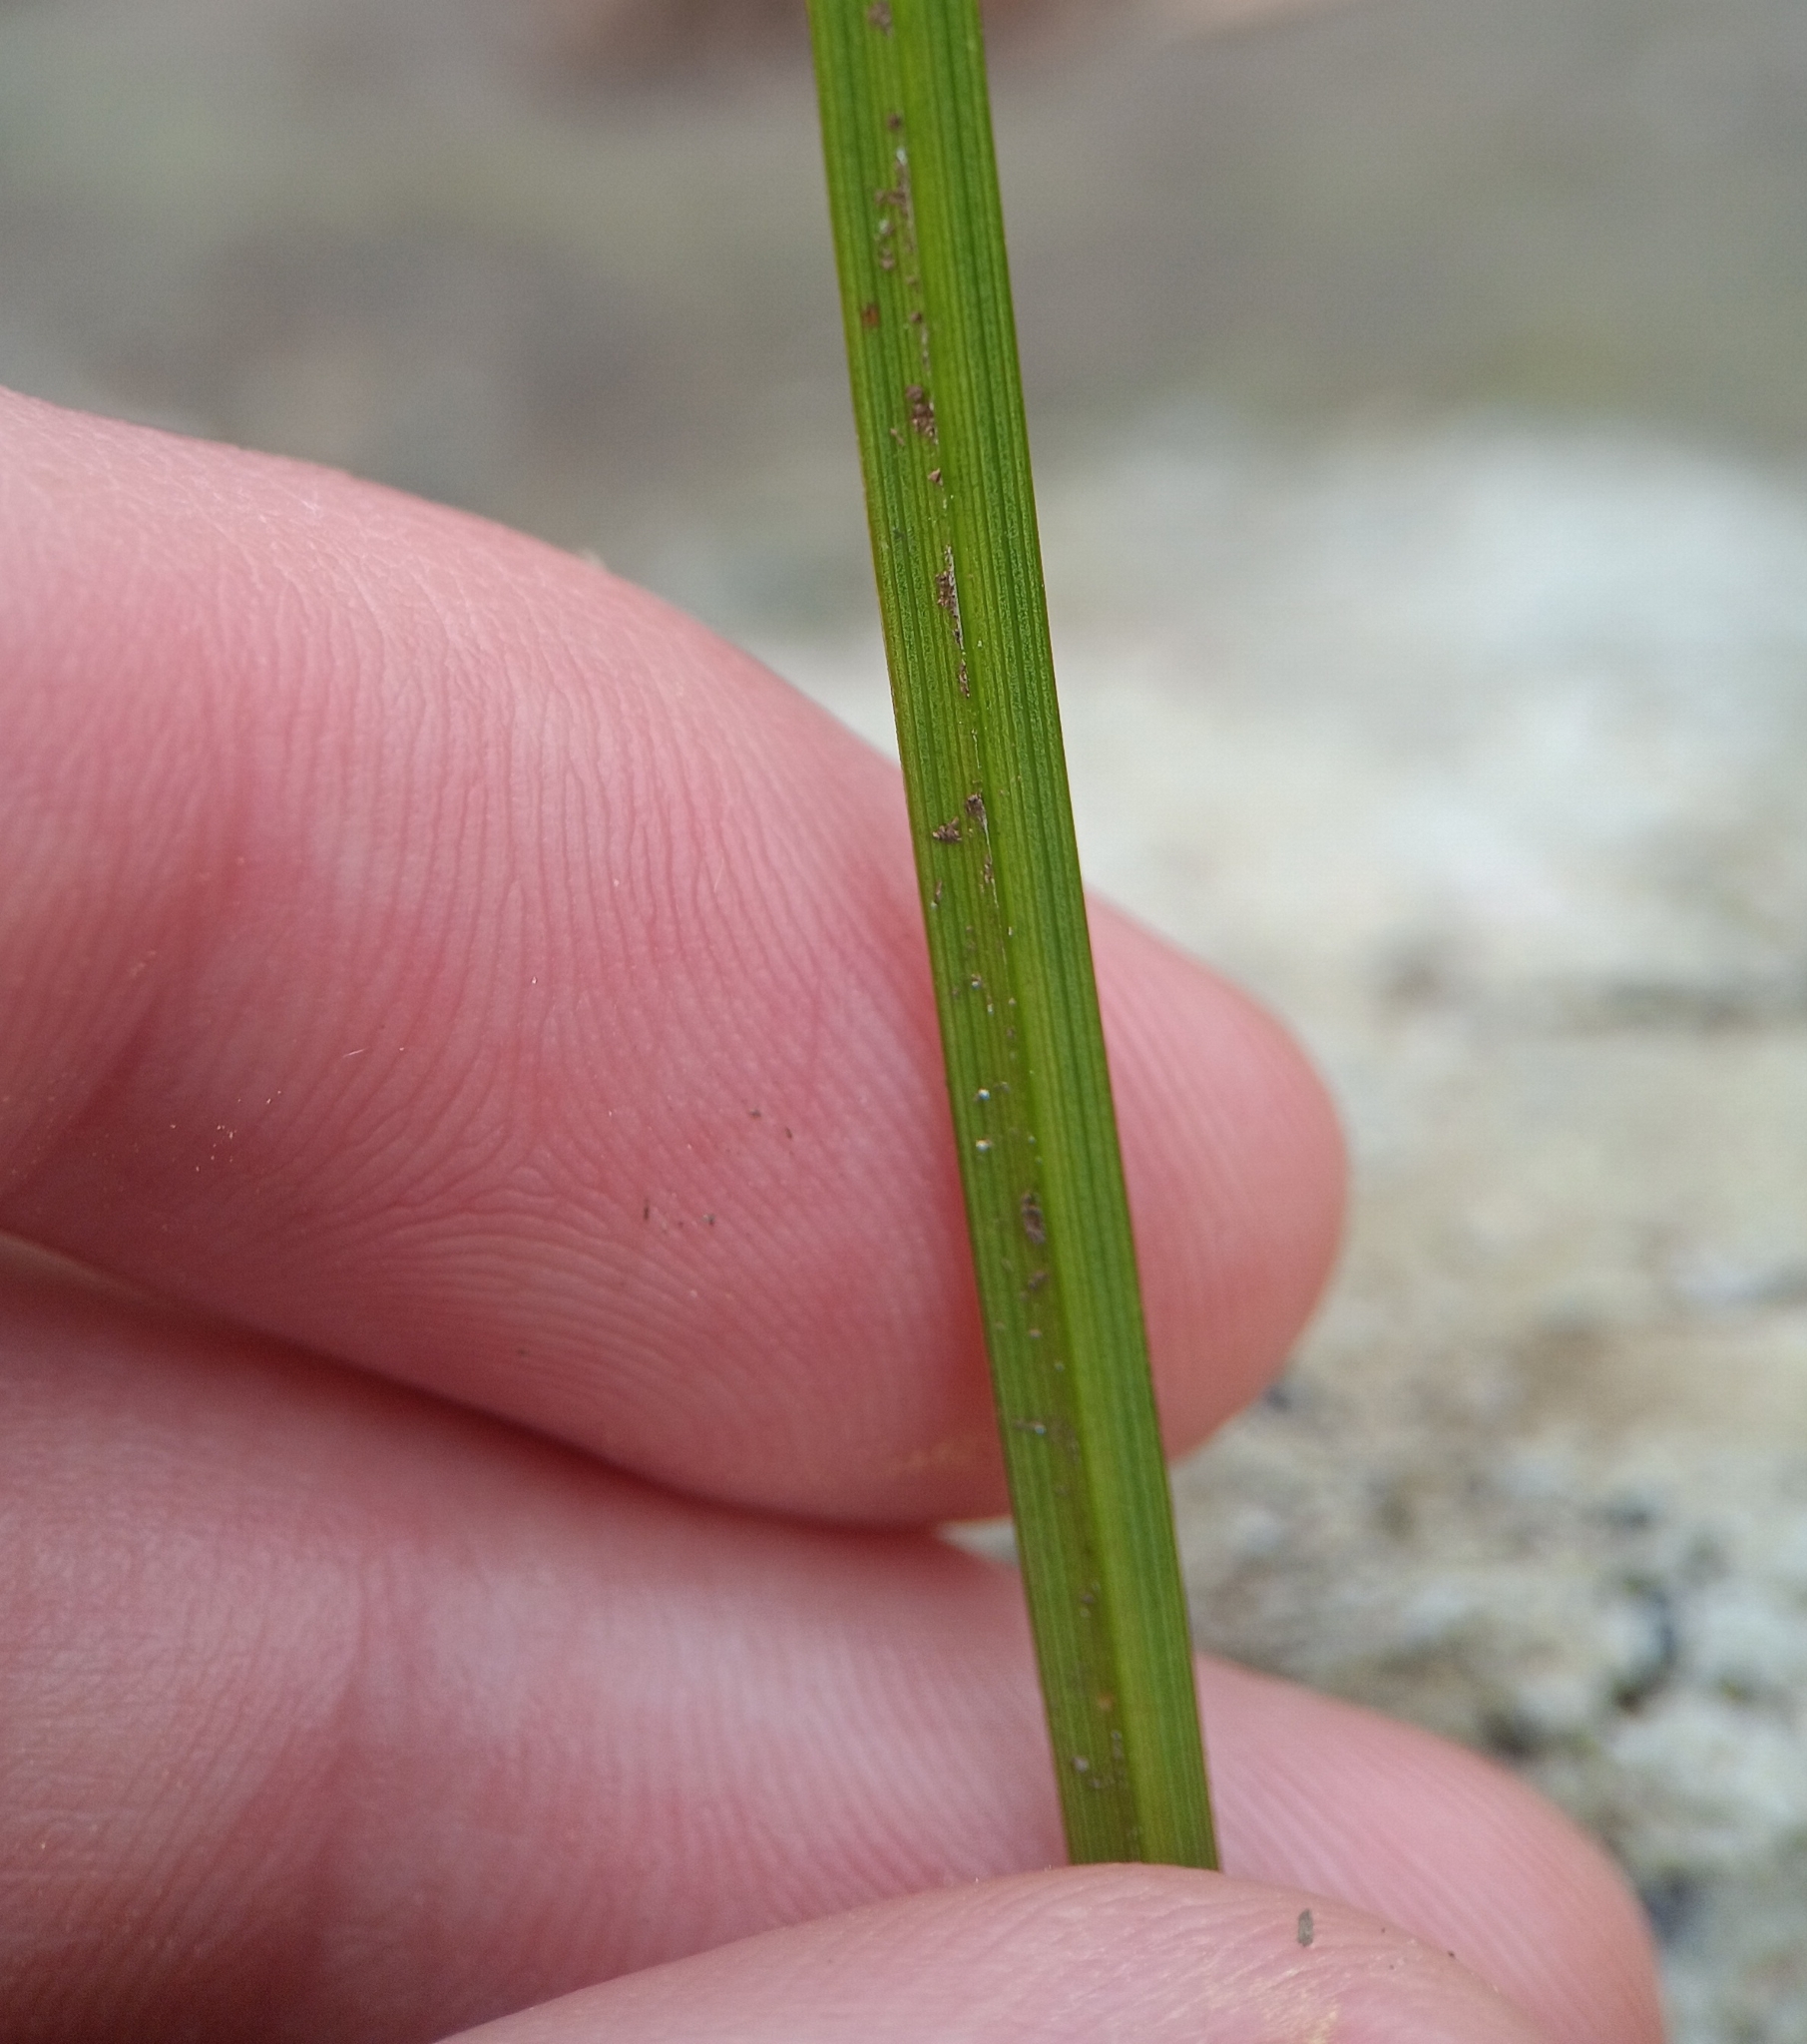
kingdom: Plantae
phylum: Tracheophyta
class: Liliopsida
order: Poales
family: Cyperaceae
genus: Carex
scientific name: Carex pensylvanica
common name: Common oak sedge
